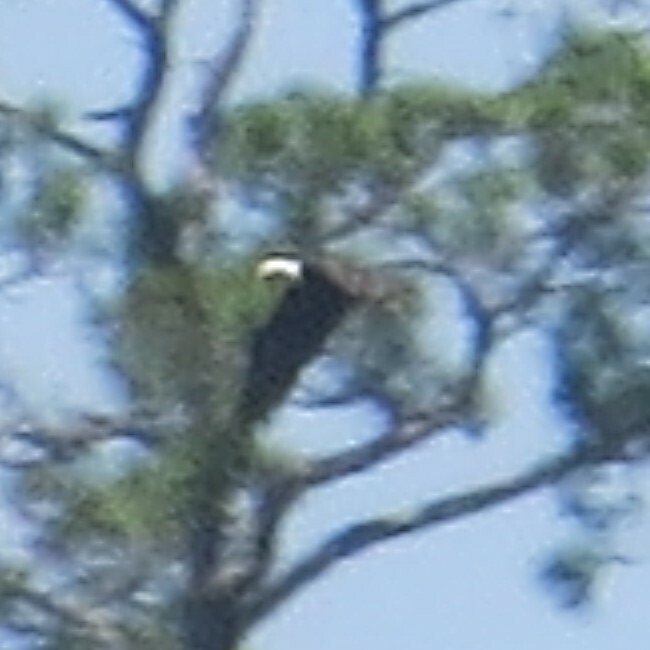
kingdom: Animalia
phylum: Chordata
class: Aves
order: Accipitriformes
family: Accipitridae
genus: Haliaeetus
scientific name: Haliaeetus leucocephalus
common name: Bald eagle
